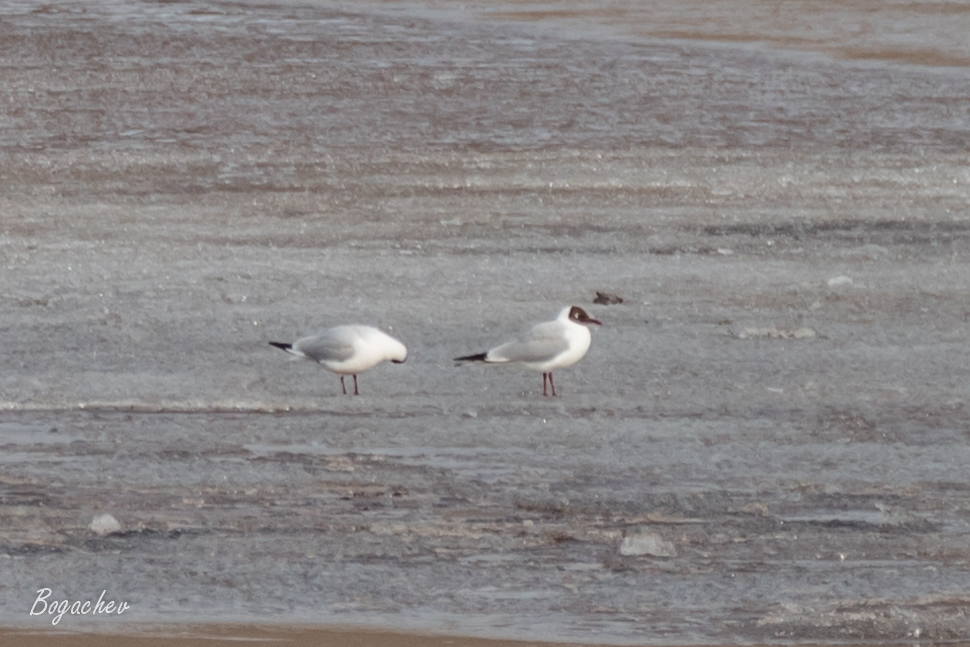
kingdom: Animalia
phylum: Chordata
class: Aves
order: Charadriiformes
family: Laridae
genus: Chroicocephalus
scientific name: Chroicocephalus ridibundus
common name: Black-headed gull
